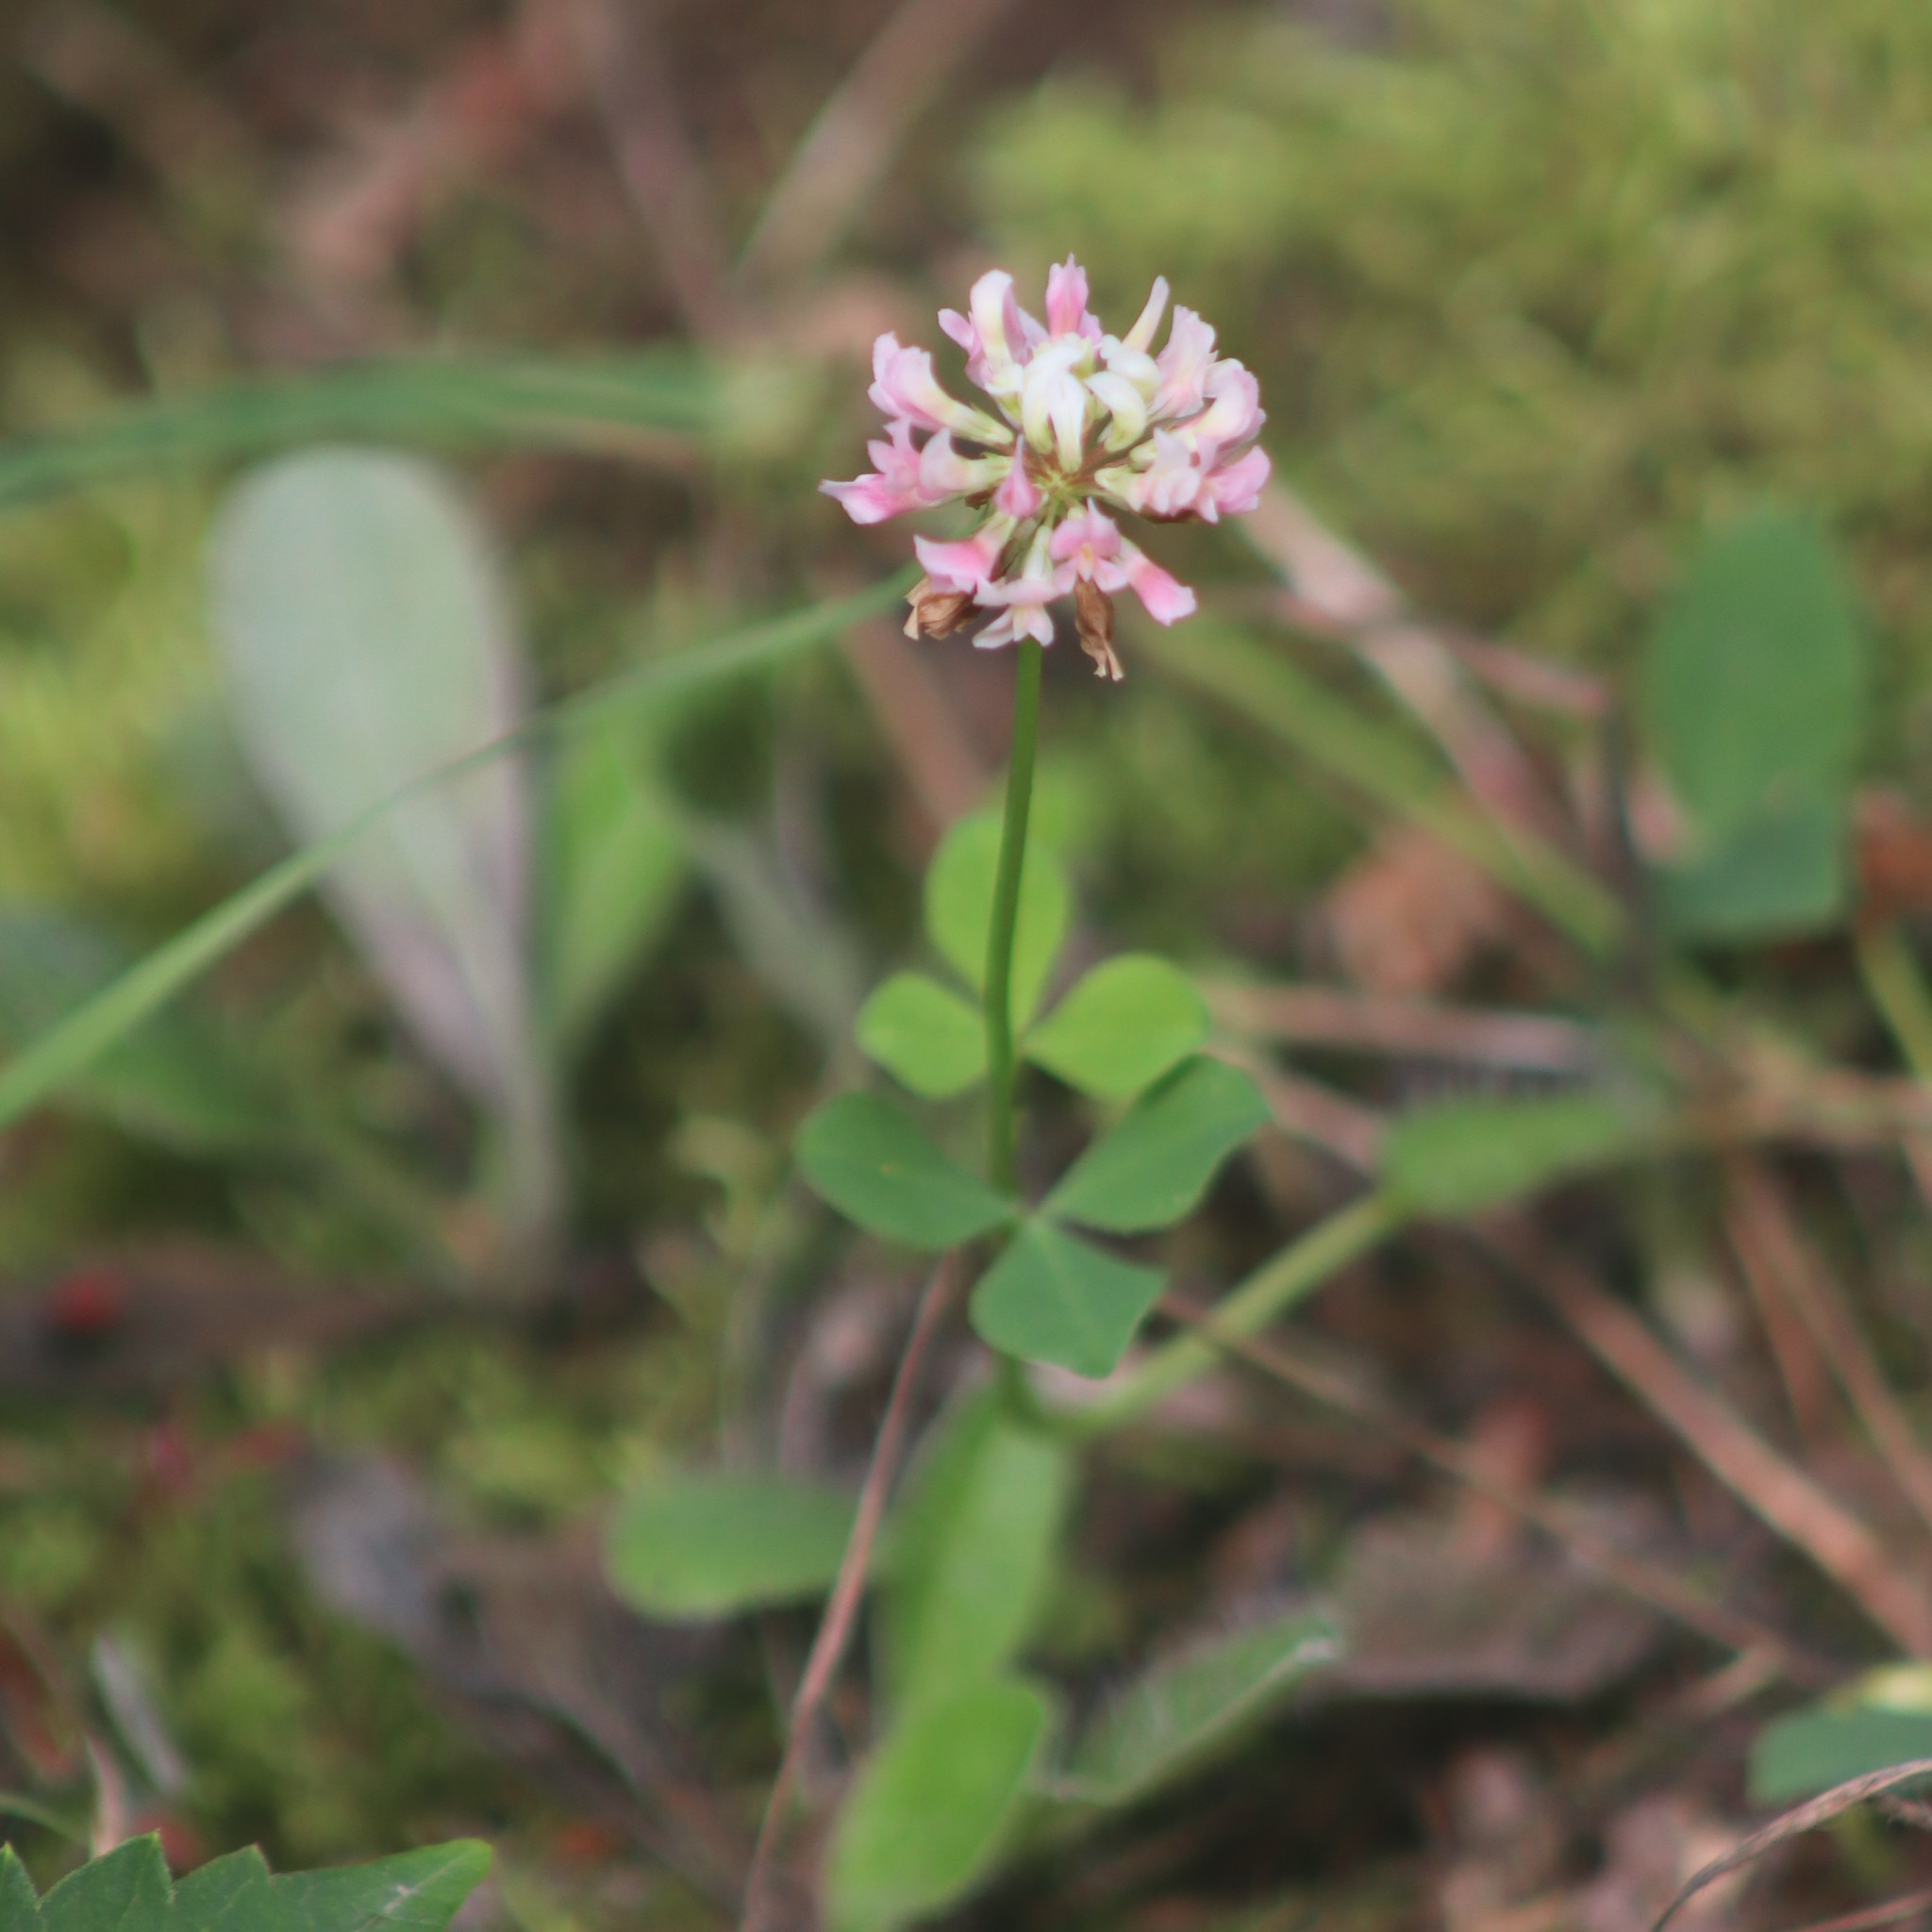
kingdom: Plantae
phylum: Tracheophyta
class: Magnoliopsida
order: Fabales
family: Fabaceae
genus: Trifolium
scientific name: Trifolium hybridum
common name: Alsike clover
